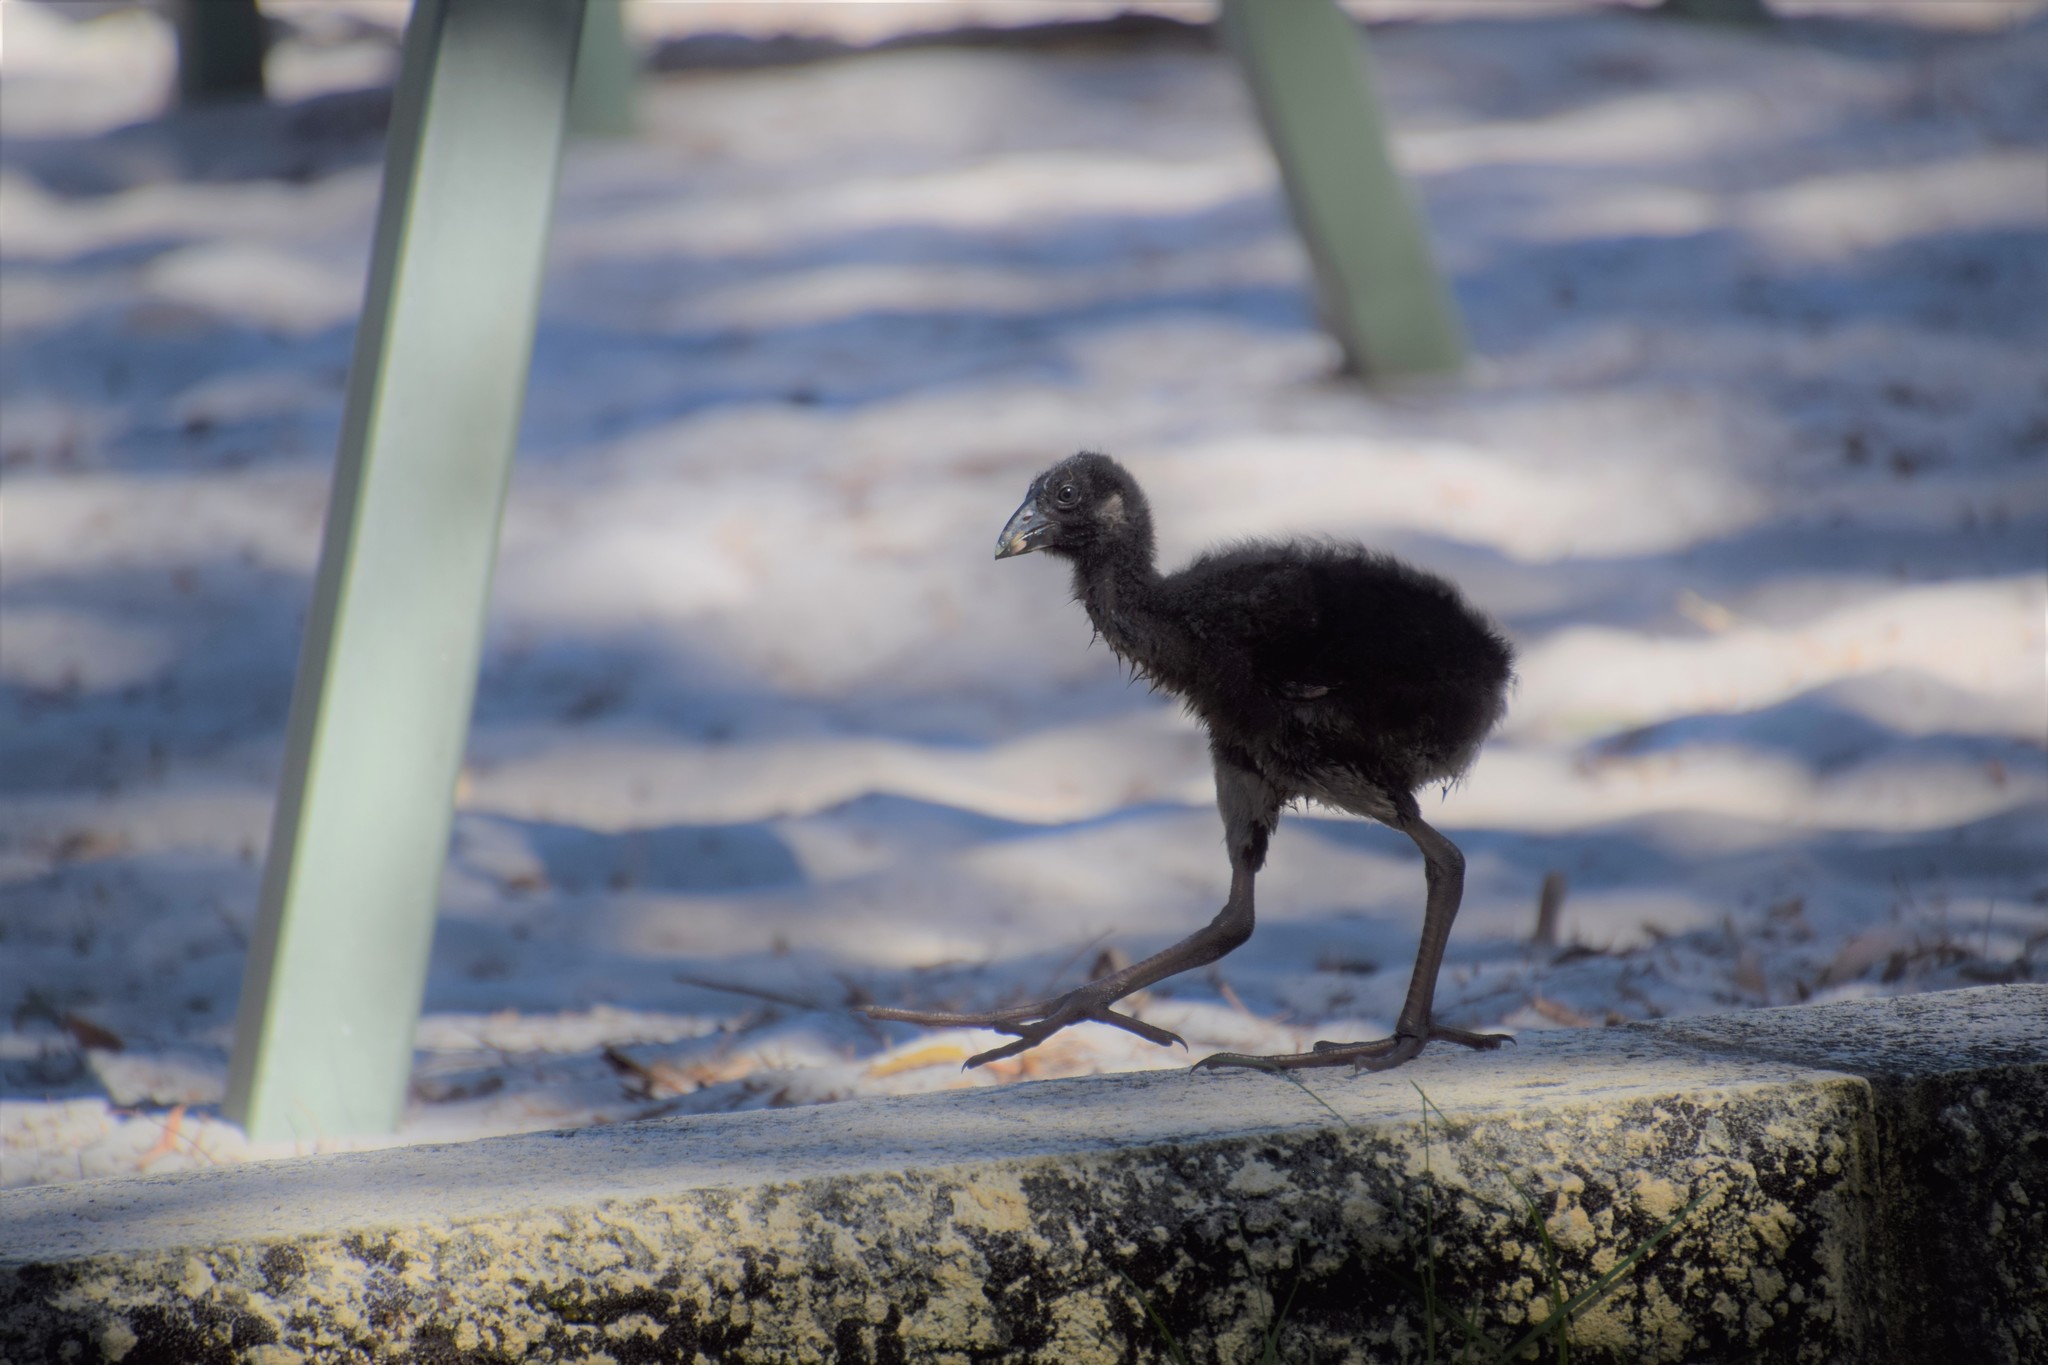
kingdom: Animalia
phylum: Chordata
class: Aves
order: Gruiformes
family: Rallidae
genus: Porphyrio
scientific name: Porphyrio melanotus
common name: Australasian swamphen
